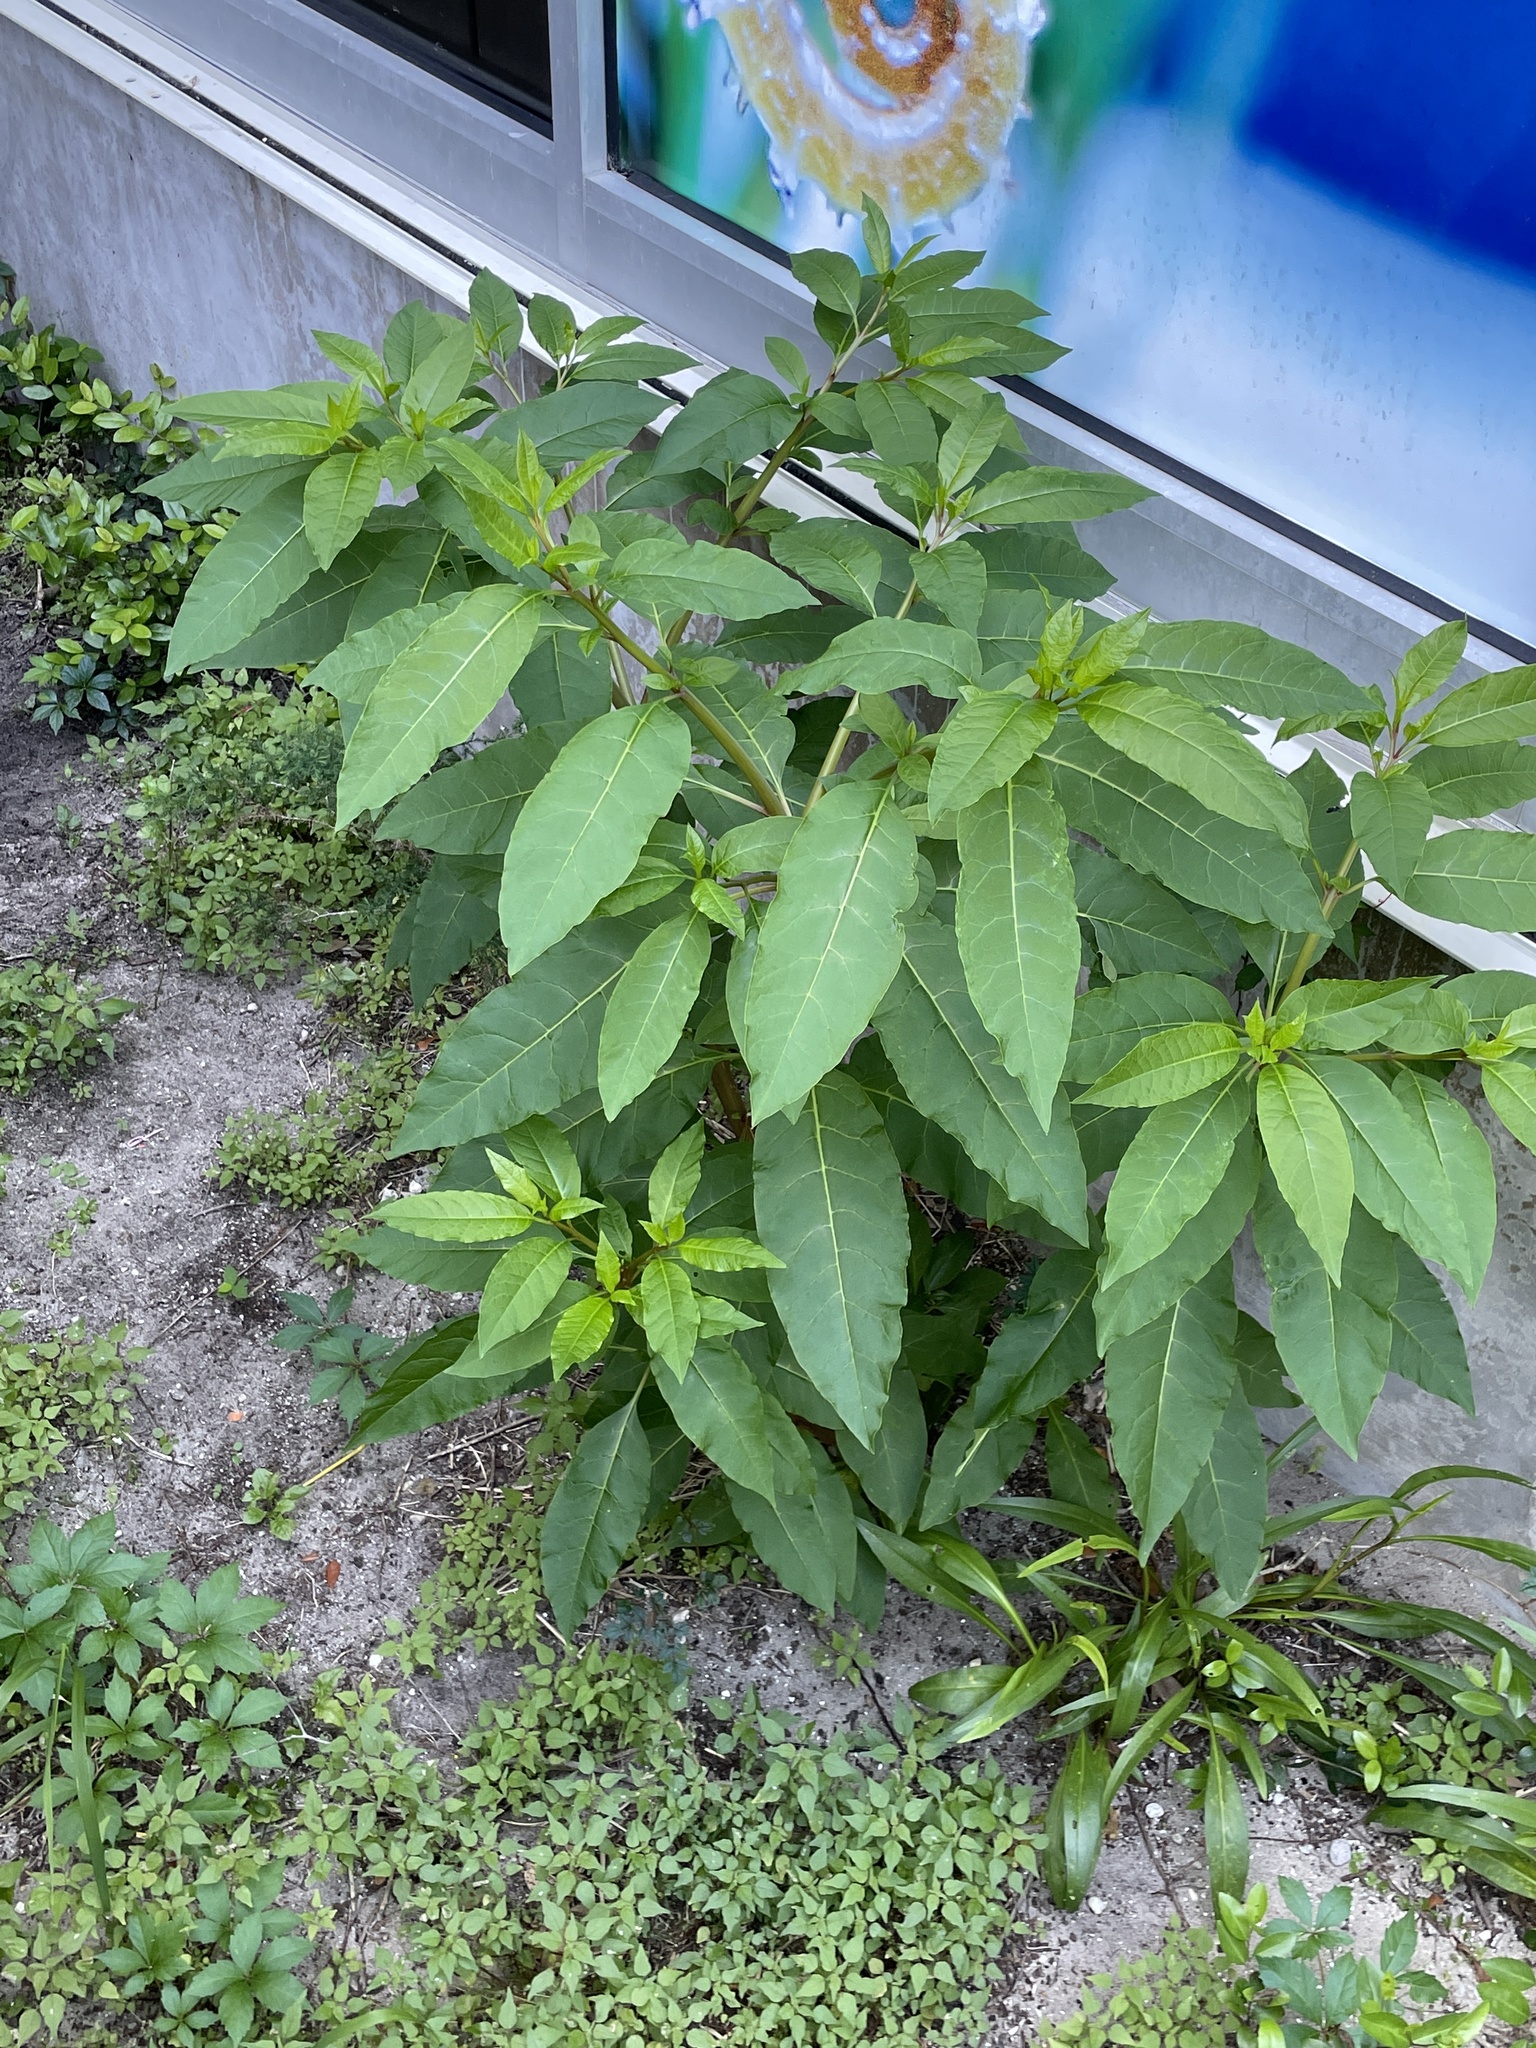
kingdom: Plantae
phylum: Tracheophyta
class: Magnoliopsida
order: Caryophyllales
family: Phytolaccaceae
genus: Phytolacca
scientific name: Phytolacca americana
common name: American pokeweed
